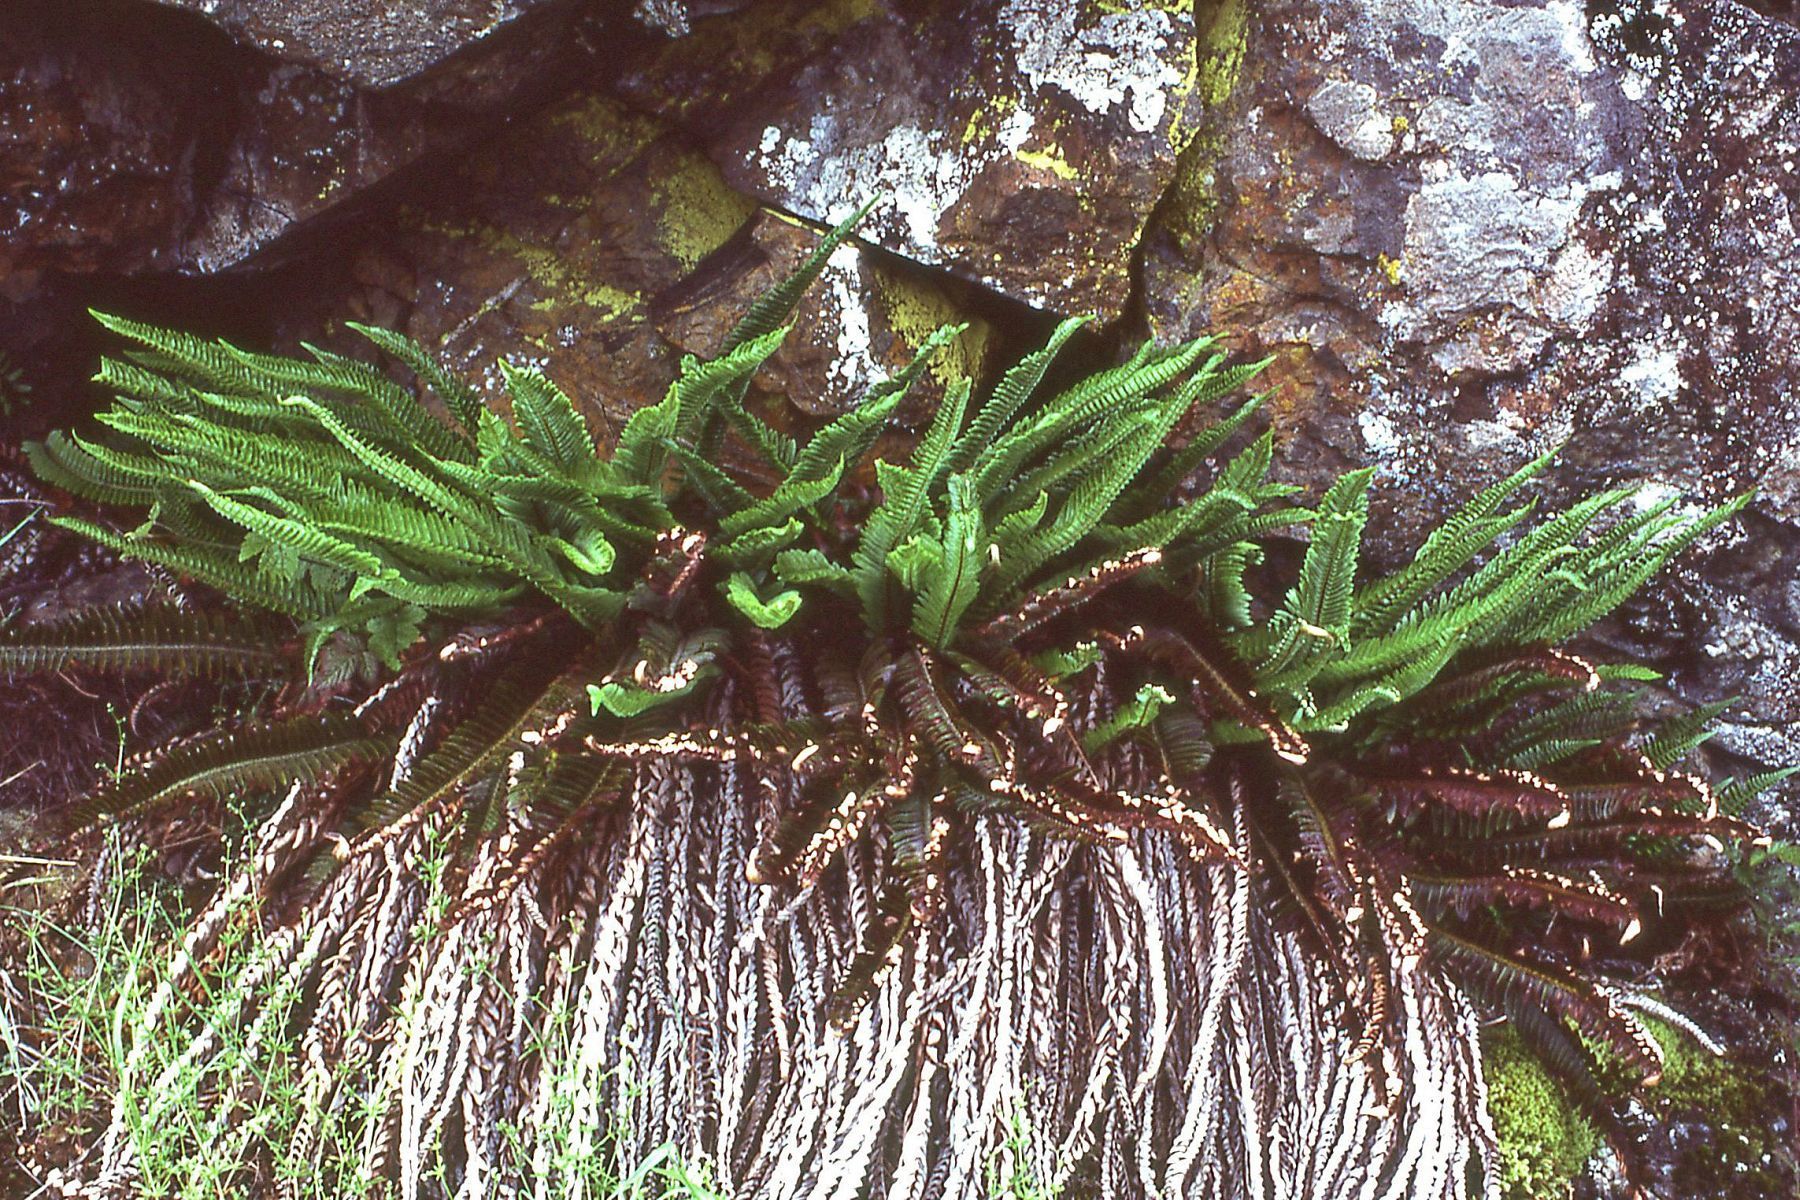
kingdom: Plantae
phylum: Tracheophyta
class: Polypodiopsida
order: Polypodiales
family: Dryopteridaceae
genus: Polystichum
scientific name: Polystichum imbricans
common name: Dwarf western sword fern
